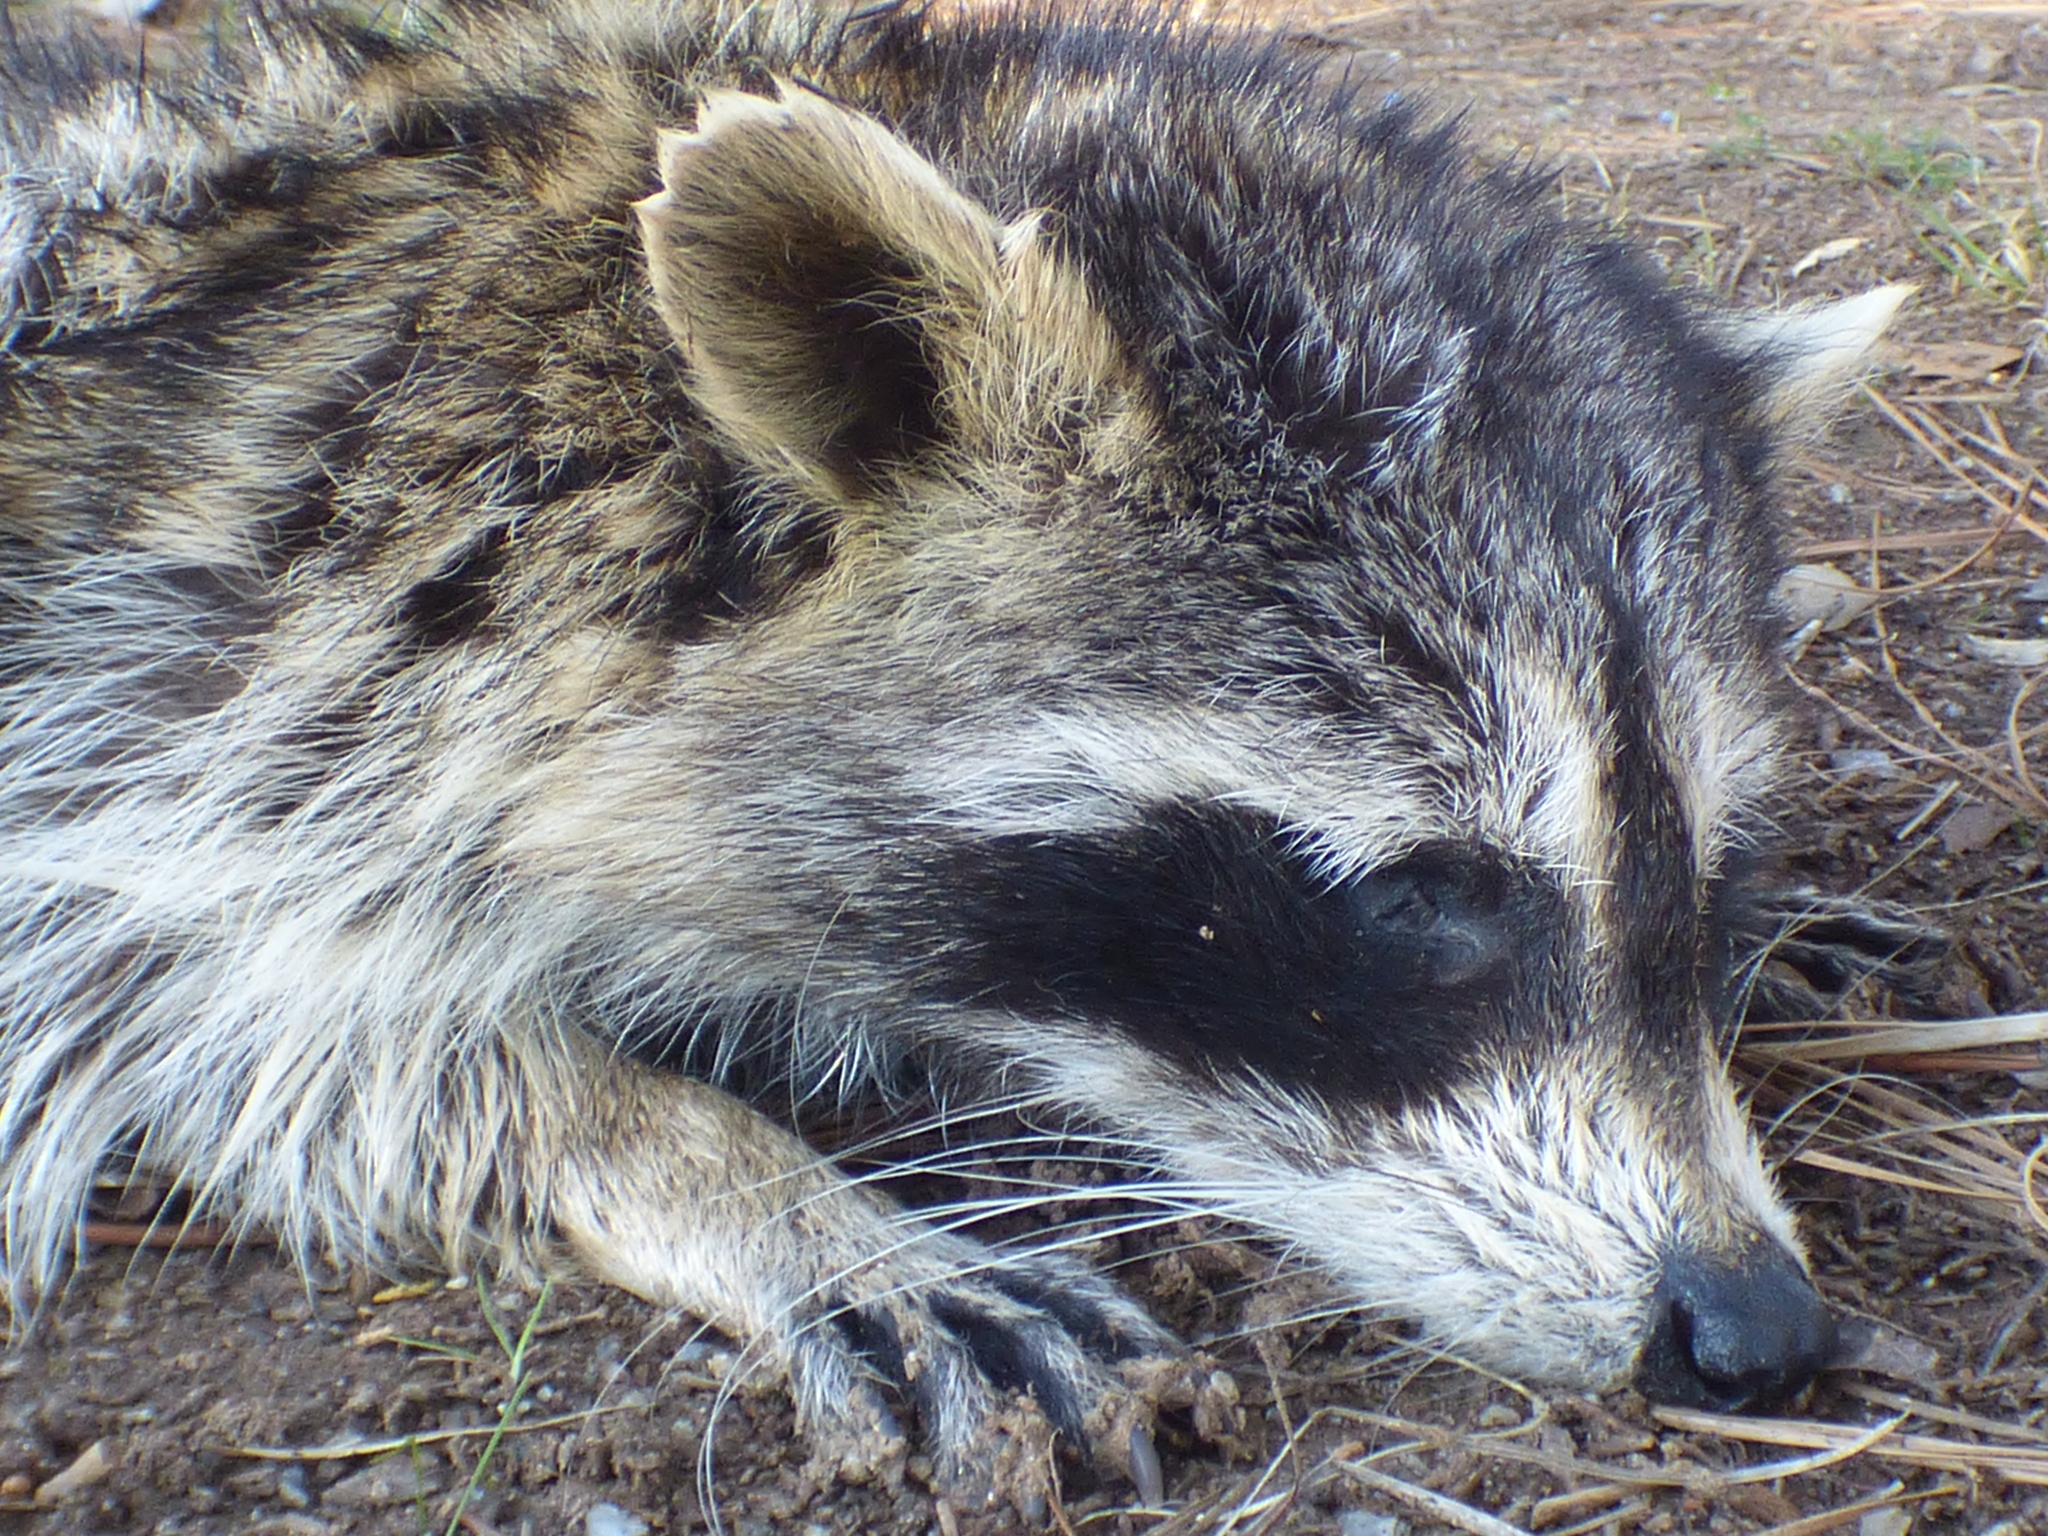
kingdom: Animalia
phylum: Chordata
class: Mammalia
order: Carnivora
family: Procyonidae
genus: Procyon
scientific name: Procyon lotor
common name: Raccoon
